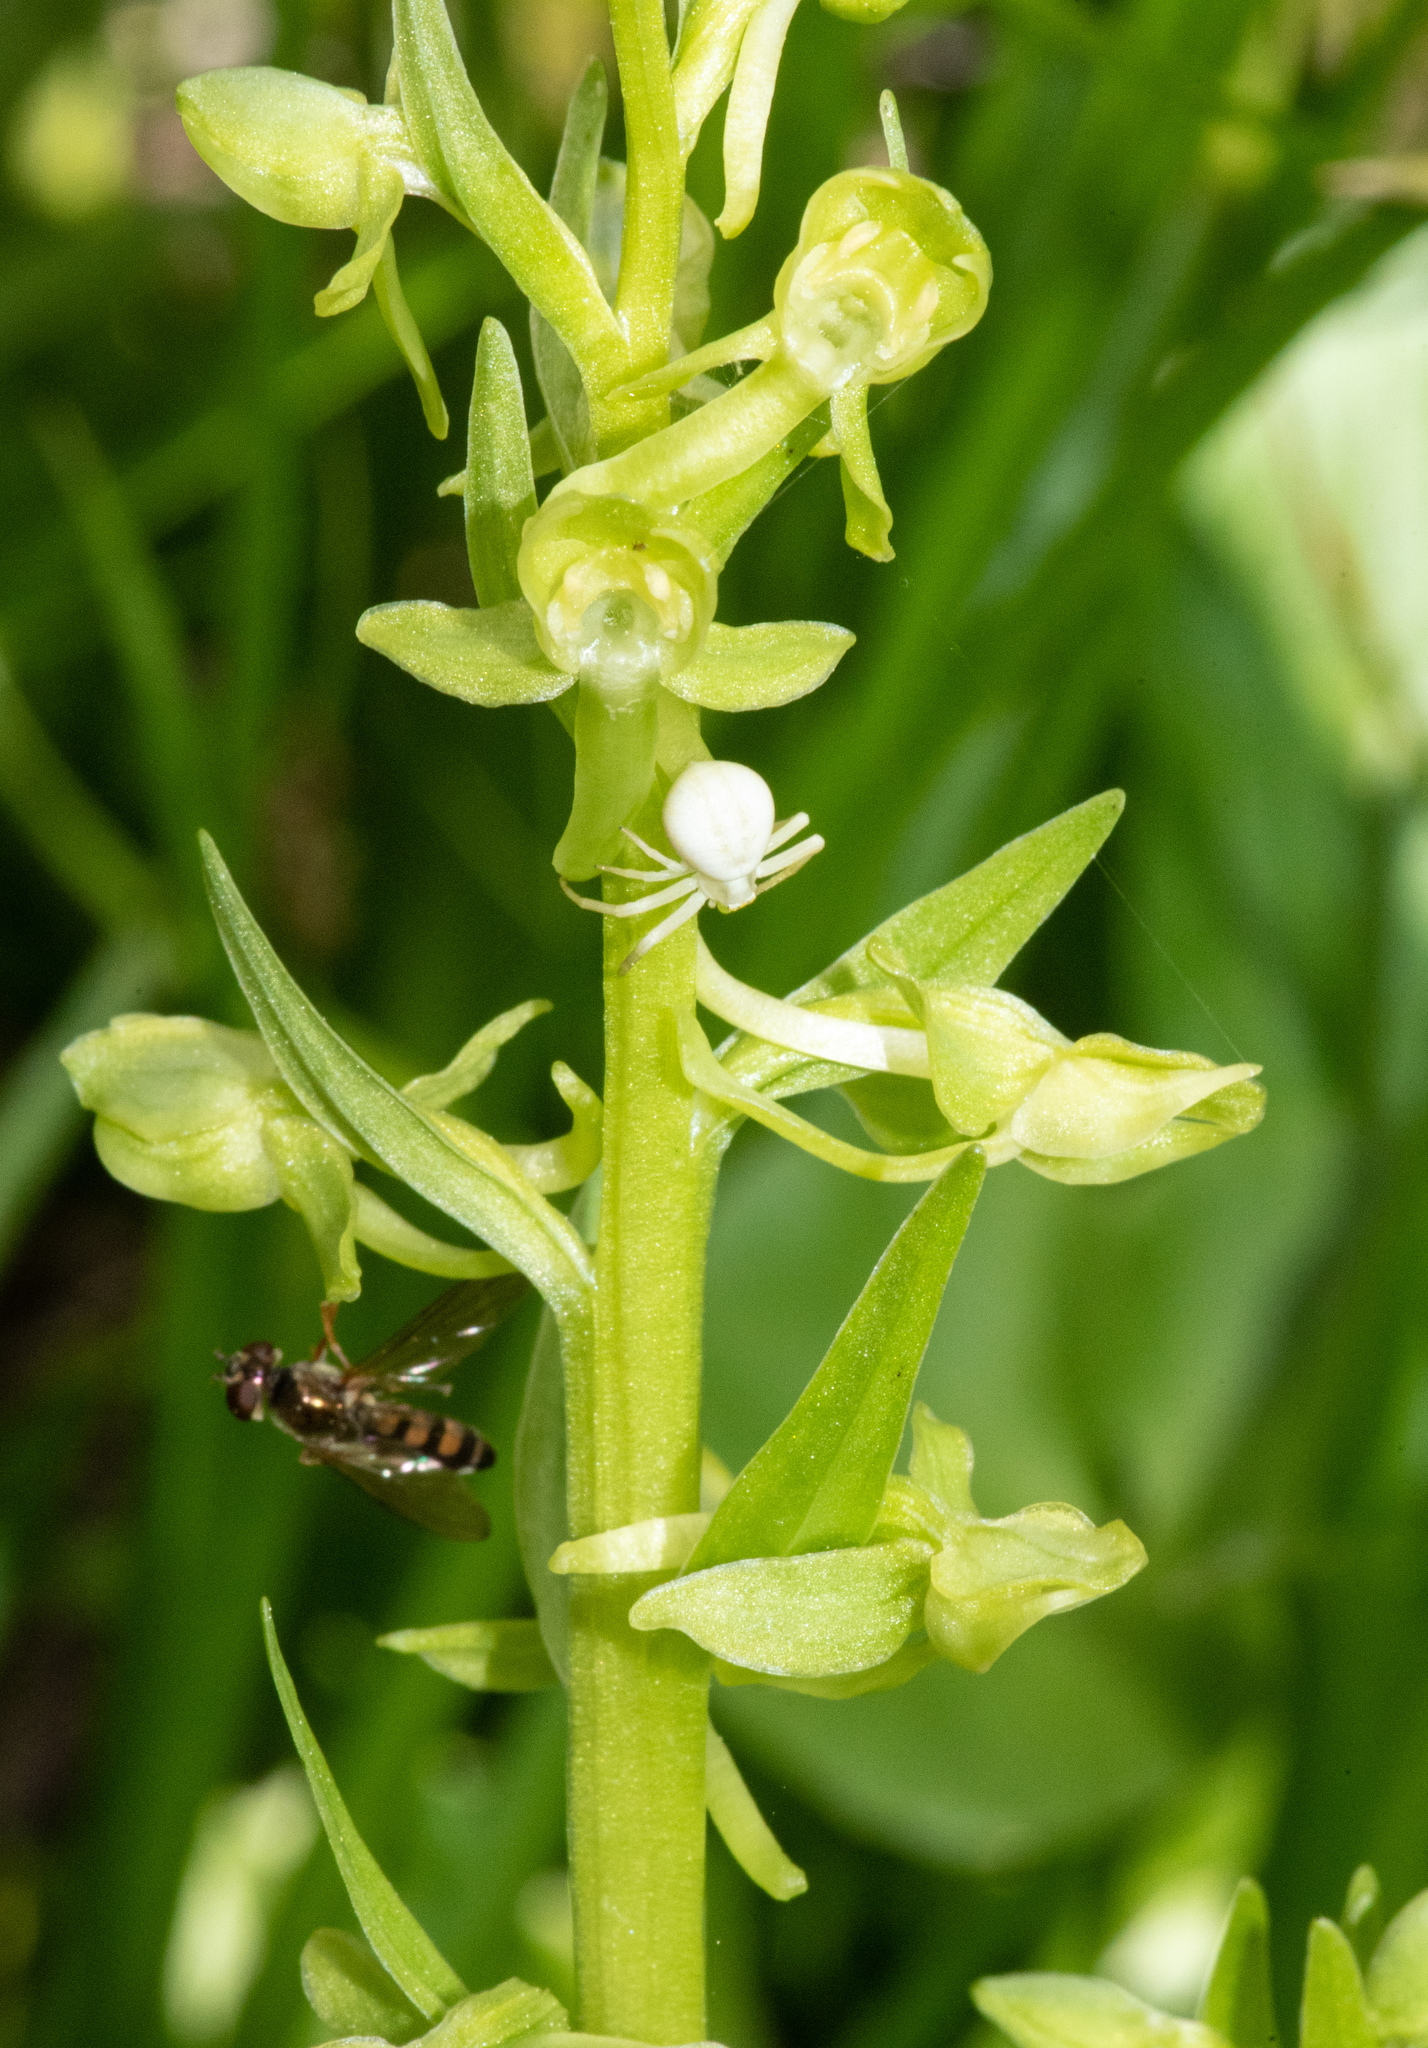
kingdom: Plantae
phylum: Tracheophyta
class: Liliopsida
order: Asparagales
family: Orchidaceae
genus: Platanthera
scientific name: Platanthera sparsiflora
